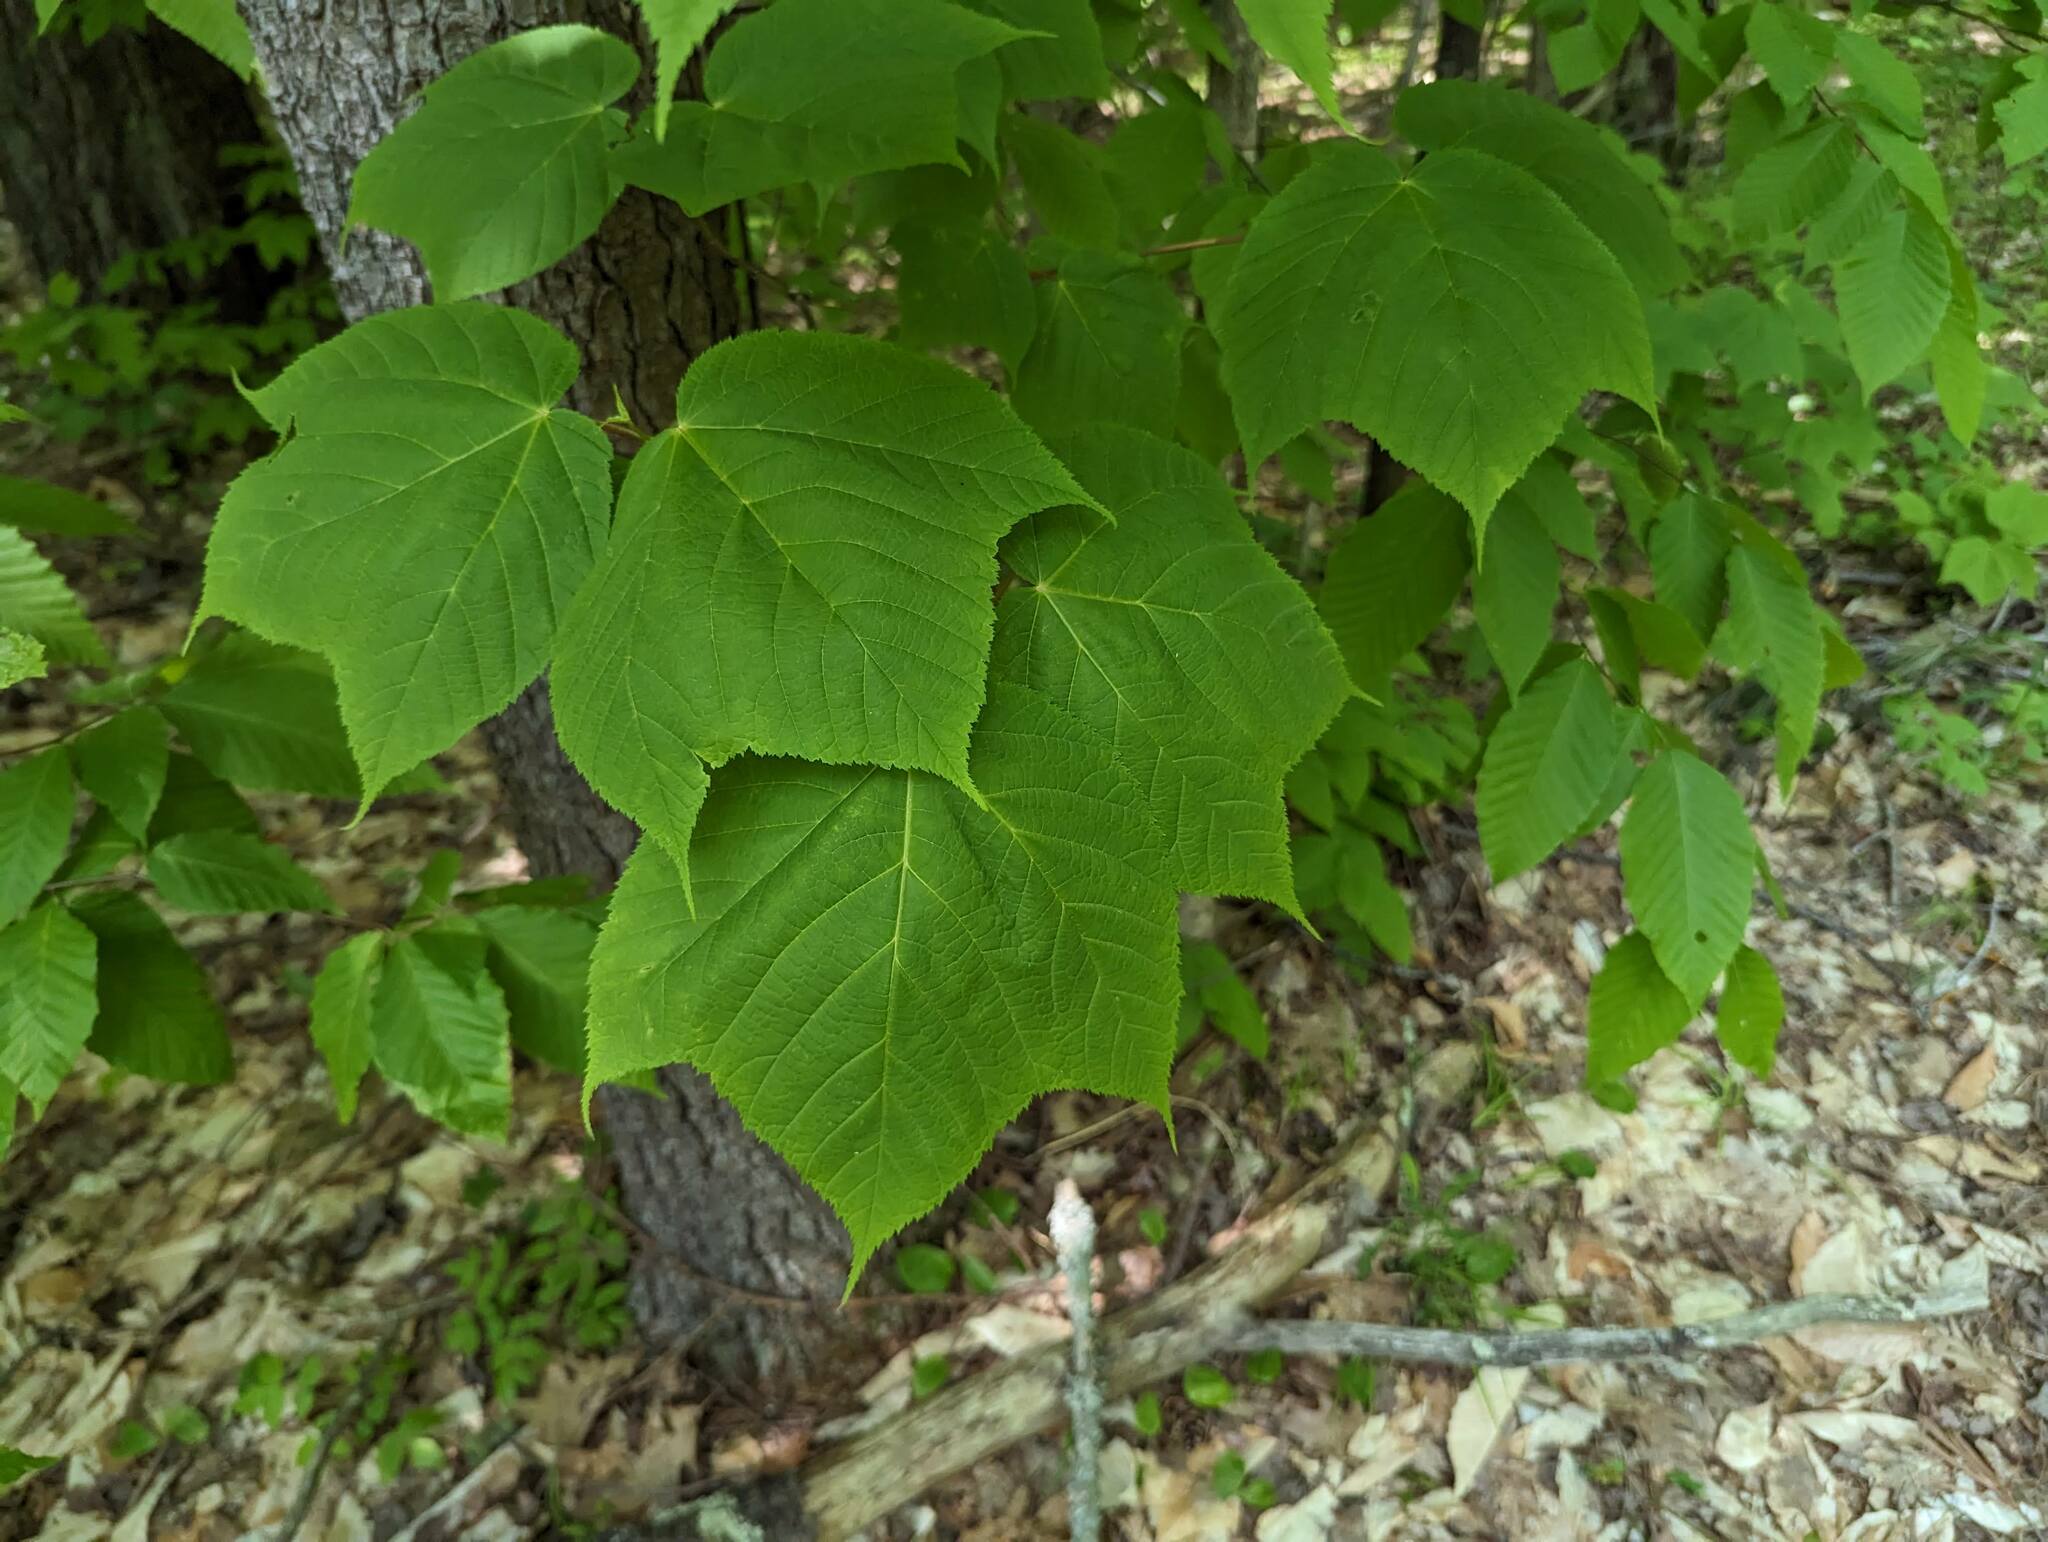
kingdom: Plantae
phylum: Tracheophyta
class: Magnoliopsida
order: Sapindales
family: Sapindaceae
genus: Acer
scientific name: Acer pensylvanicum
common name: Moosewood
